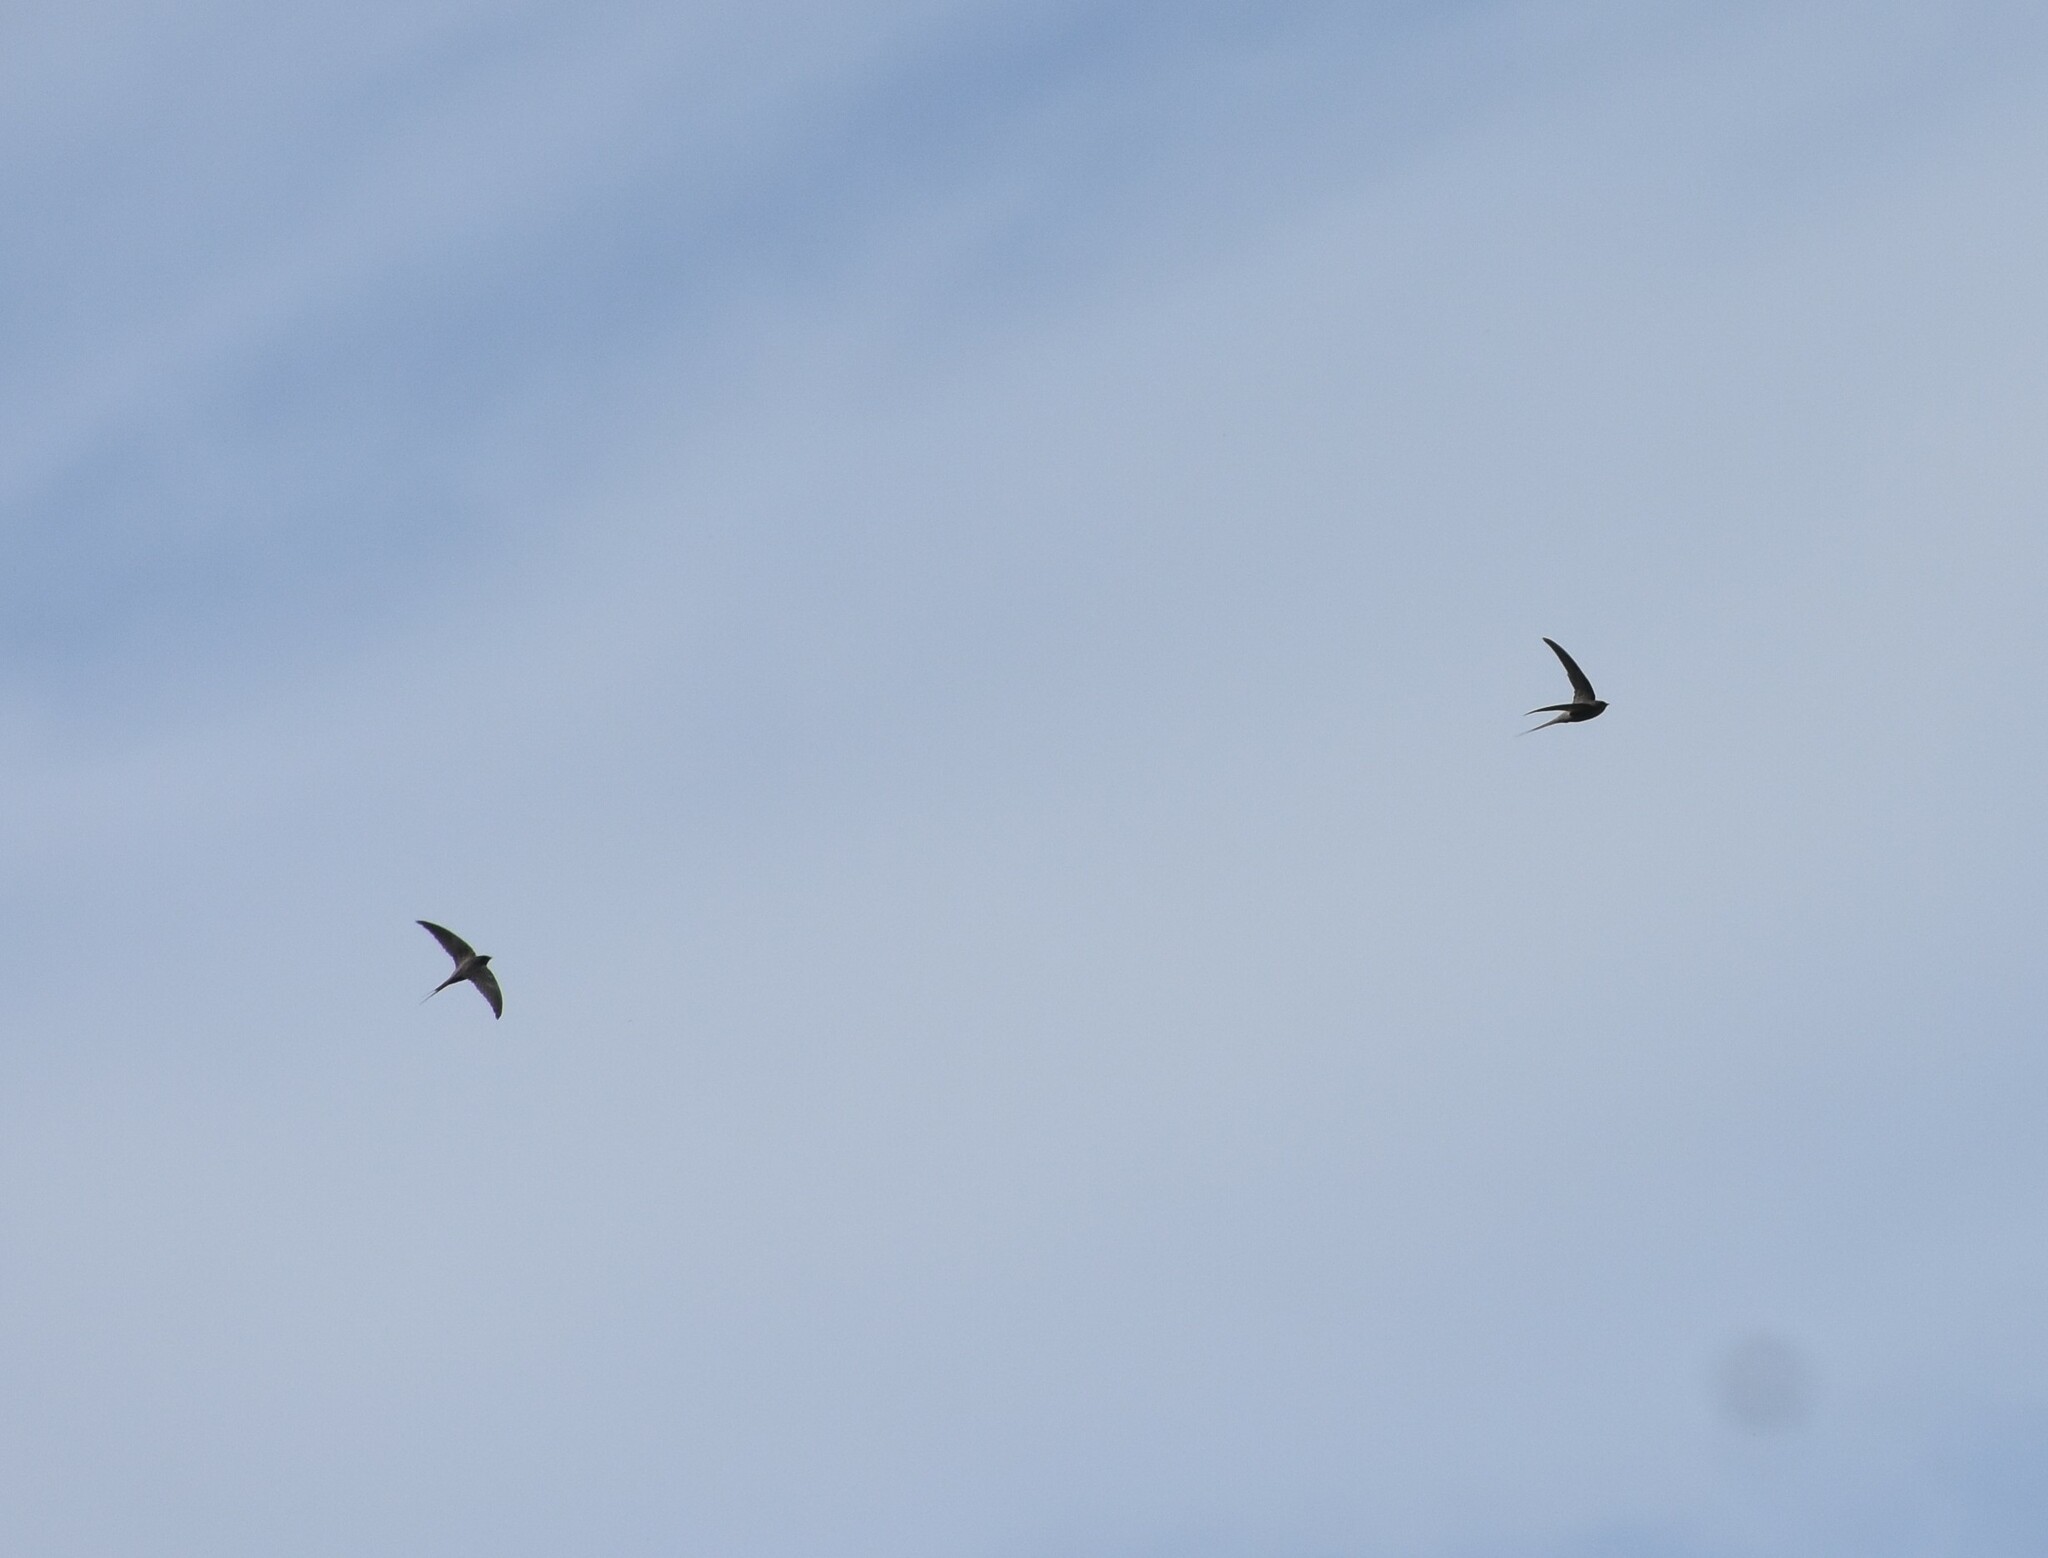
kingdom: Animalia
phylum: Chordata
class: Aves
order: Apodiformes
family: Apodidae
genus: Cypsiurus
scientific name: Cypsiurus parvus
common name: African palm swift
